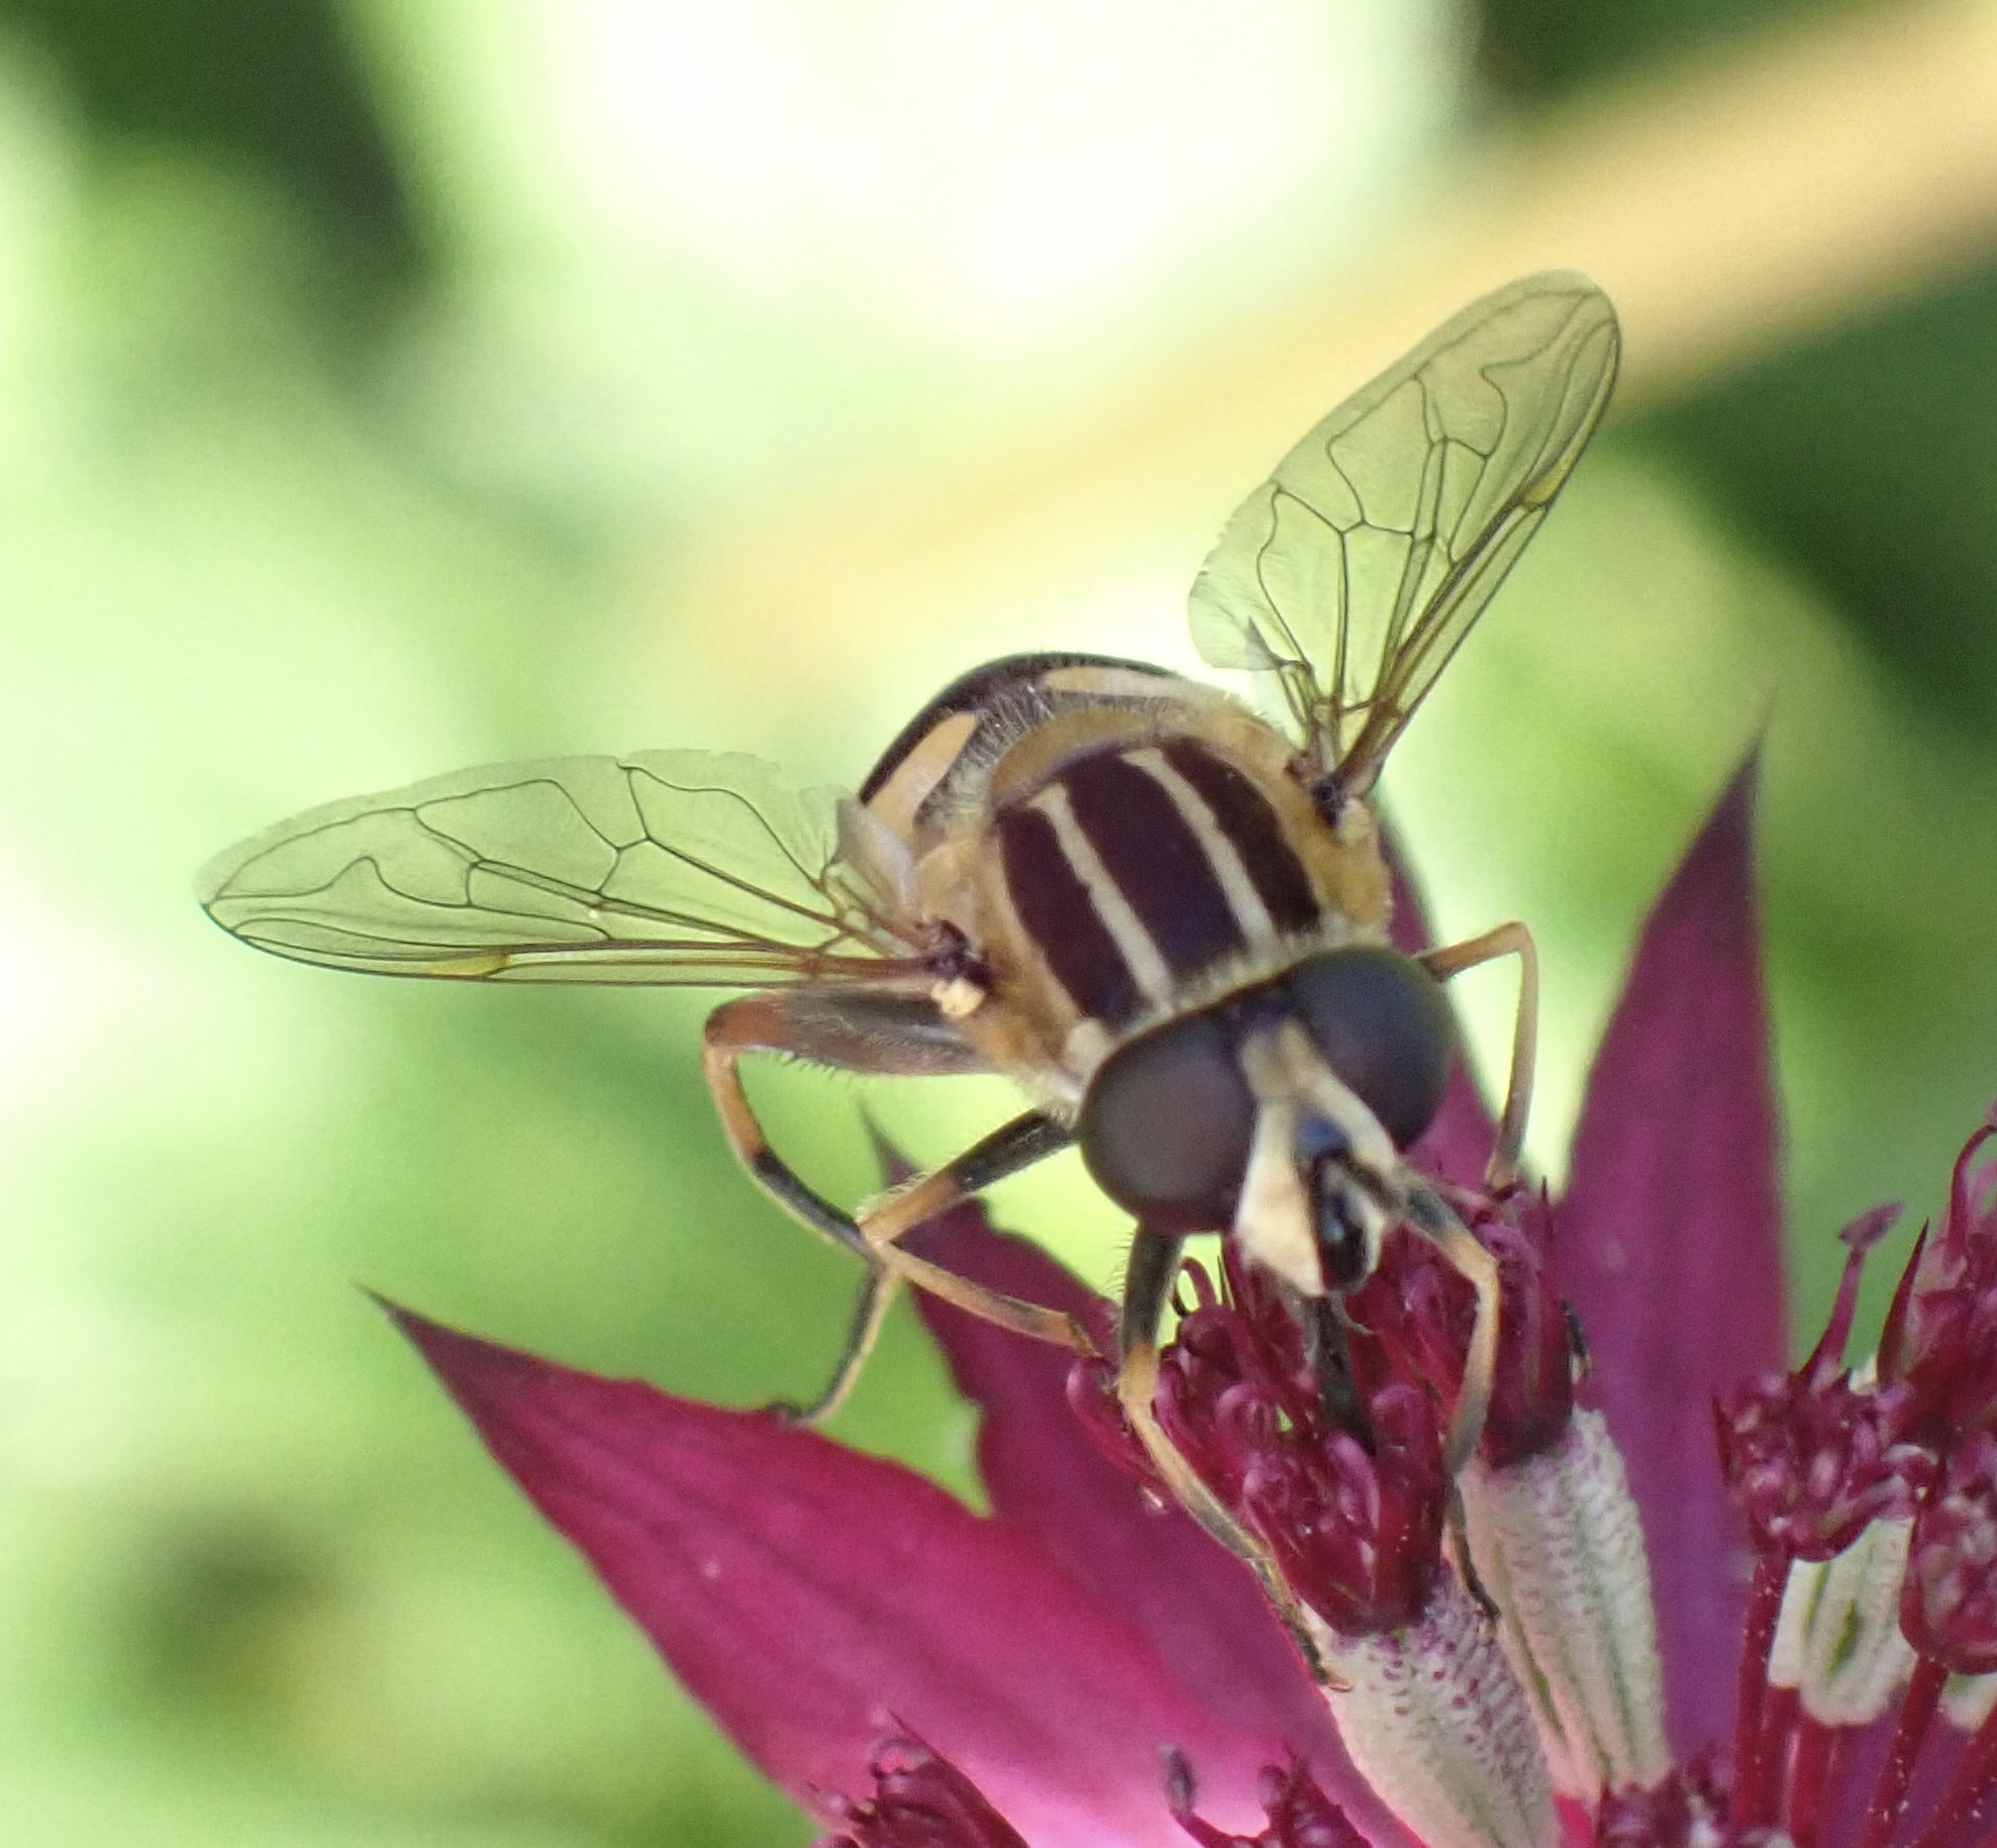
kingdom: Animalia
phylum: Arthropoda
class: Insecta
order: Diptera
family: Syrphidae
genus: Helophilus
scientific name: Helophilus pendulus
